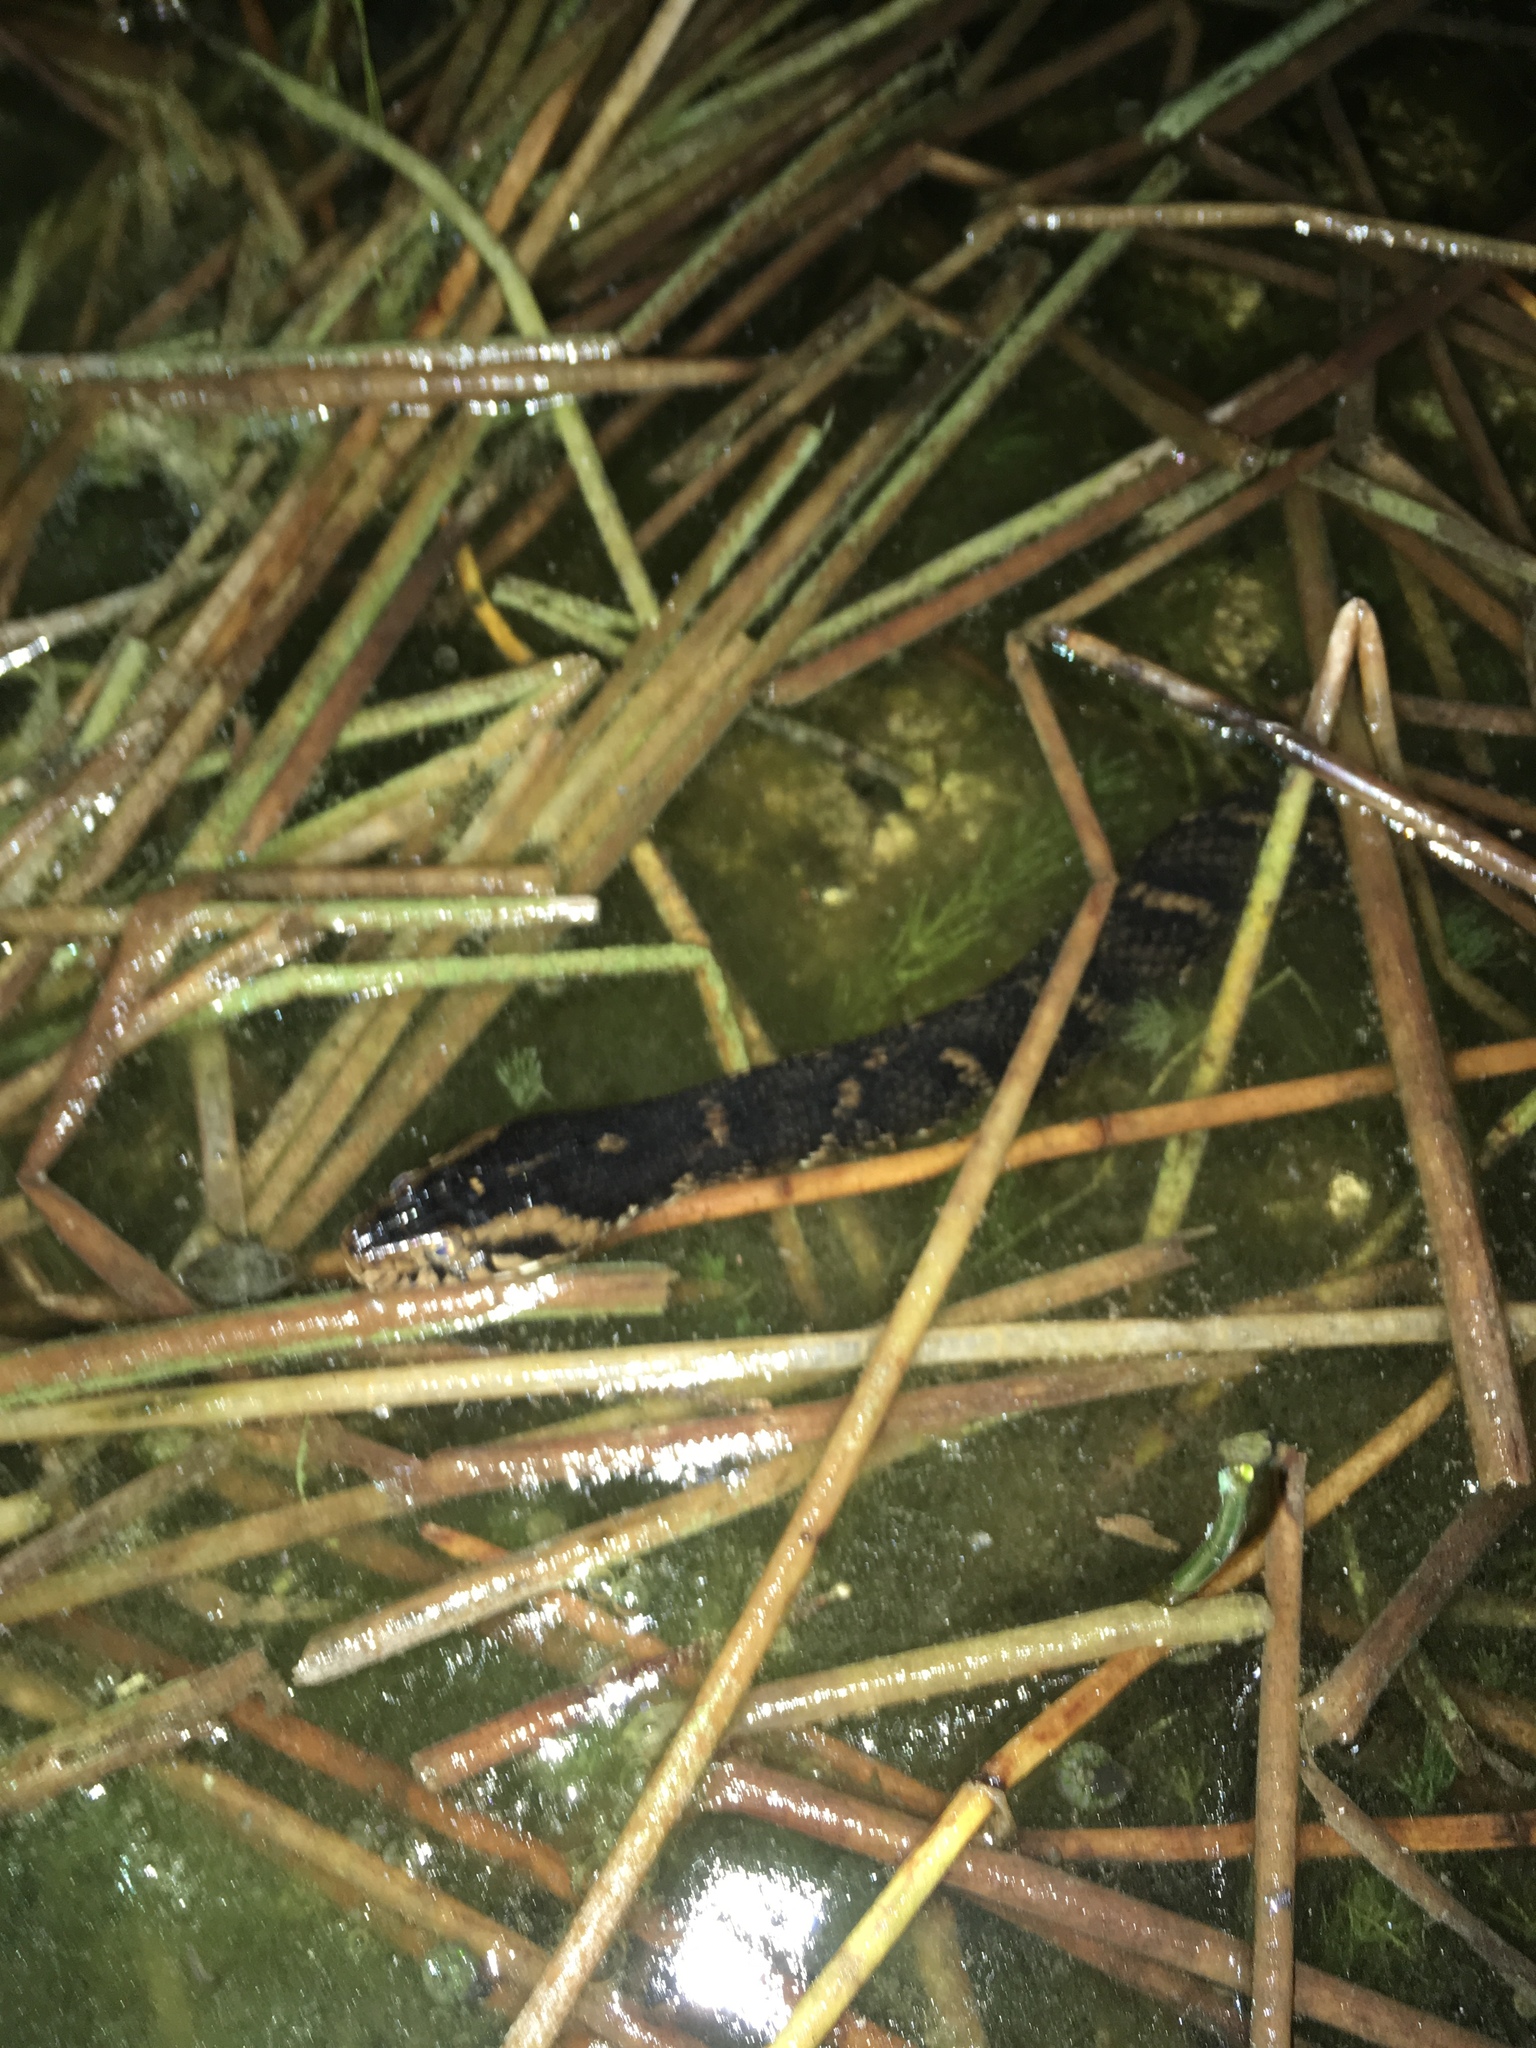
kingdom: Animalia
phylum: Chordata
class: Squamata
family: Colubridae
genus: Nerodia
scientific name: Nerodia fasciata
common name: Southern water snake
